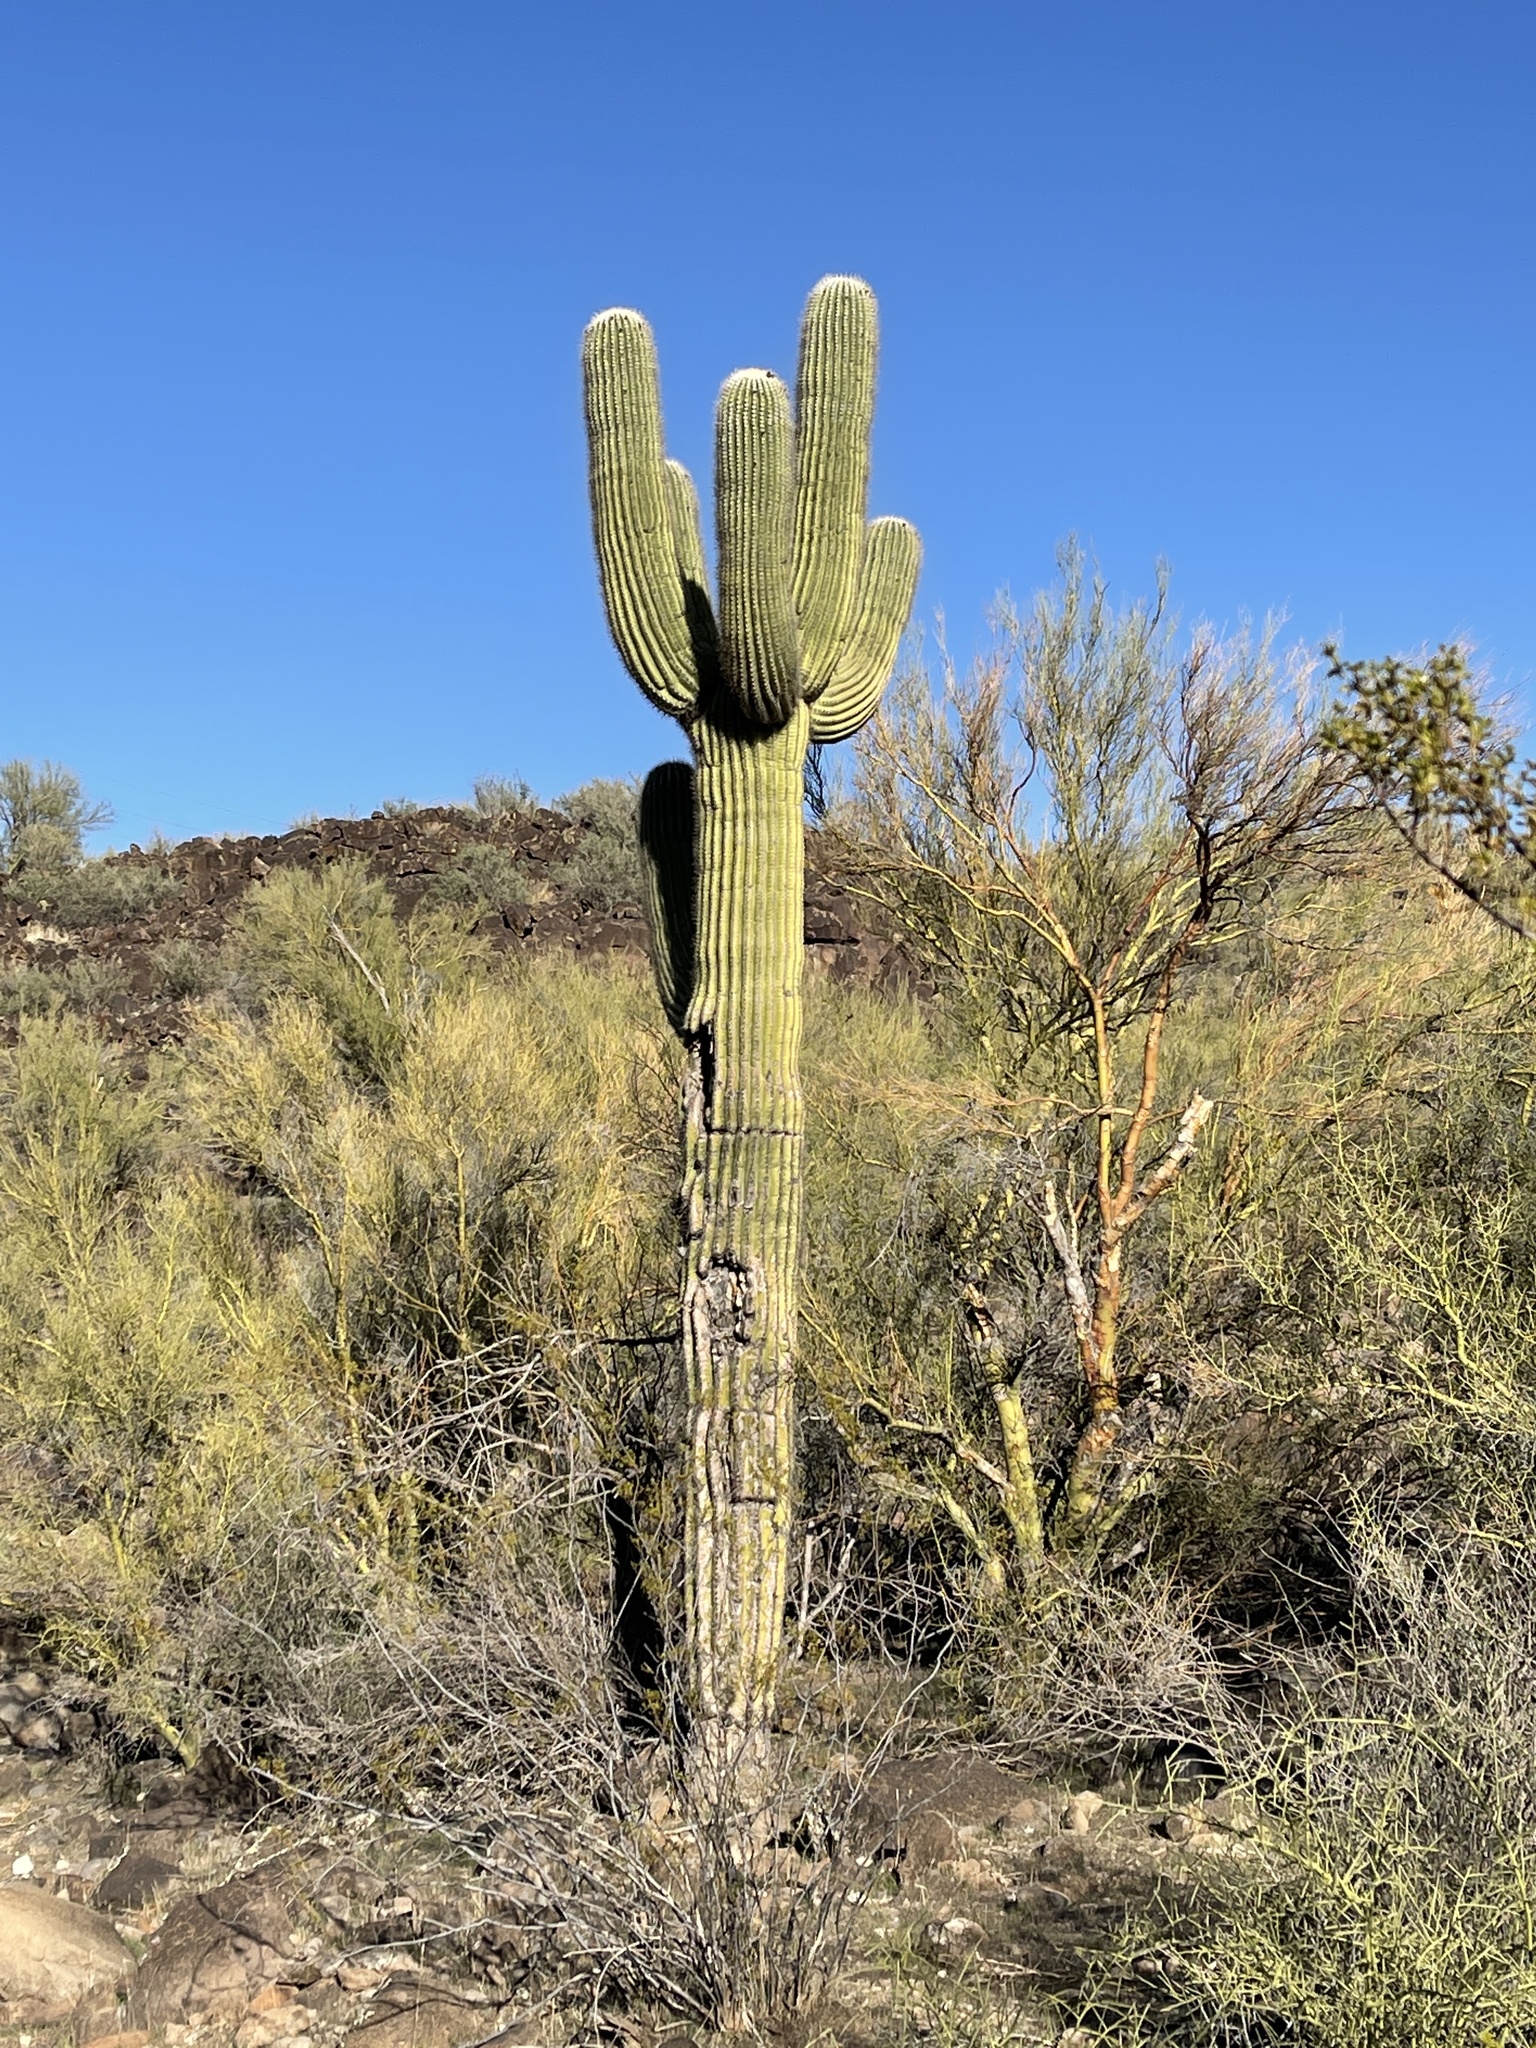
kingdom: Plantae
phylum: Tracheophyta
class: Magnoliopsida
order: Caryophyllales
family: Cactaceae
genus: Carnegiea
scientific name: Carnegiea gigantea
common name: Saguaro
